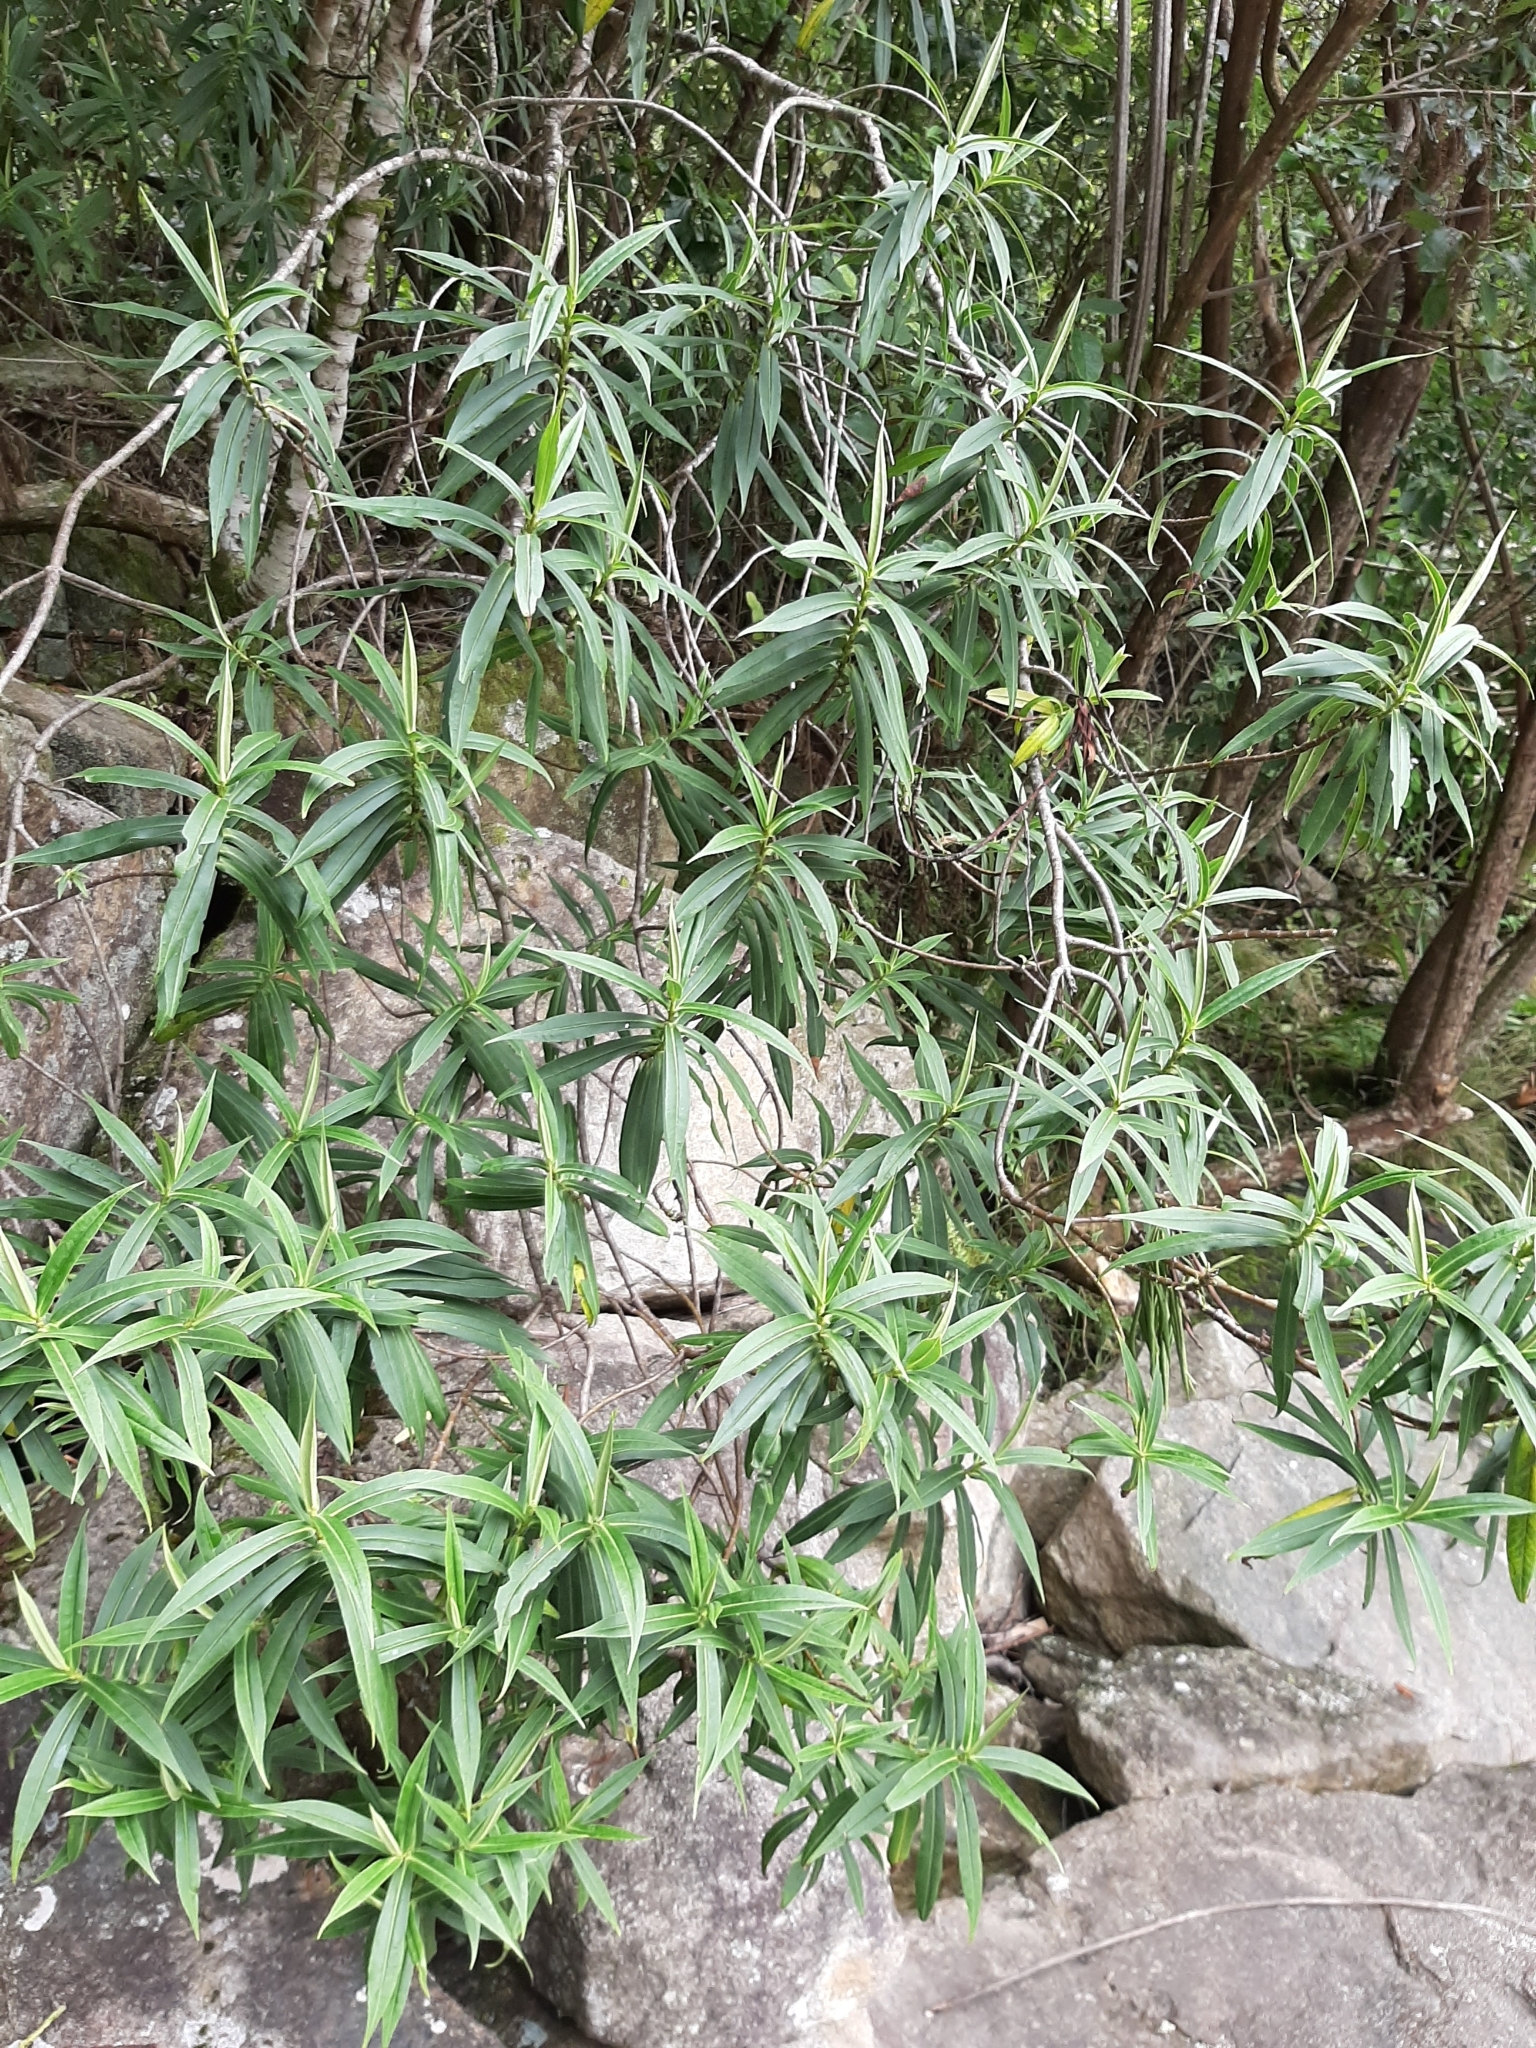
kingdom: Plantae
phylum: Tracheophyta
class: Magnoliopsida
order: Lamiales
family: Plantaginaceae
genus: Veronica
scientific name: Veronica salicifolia
